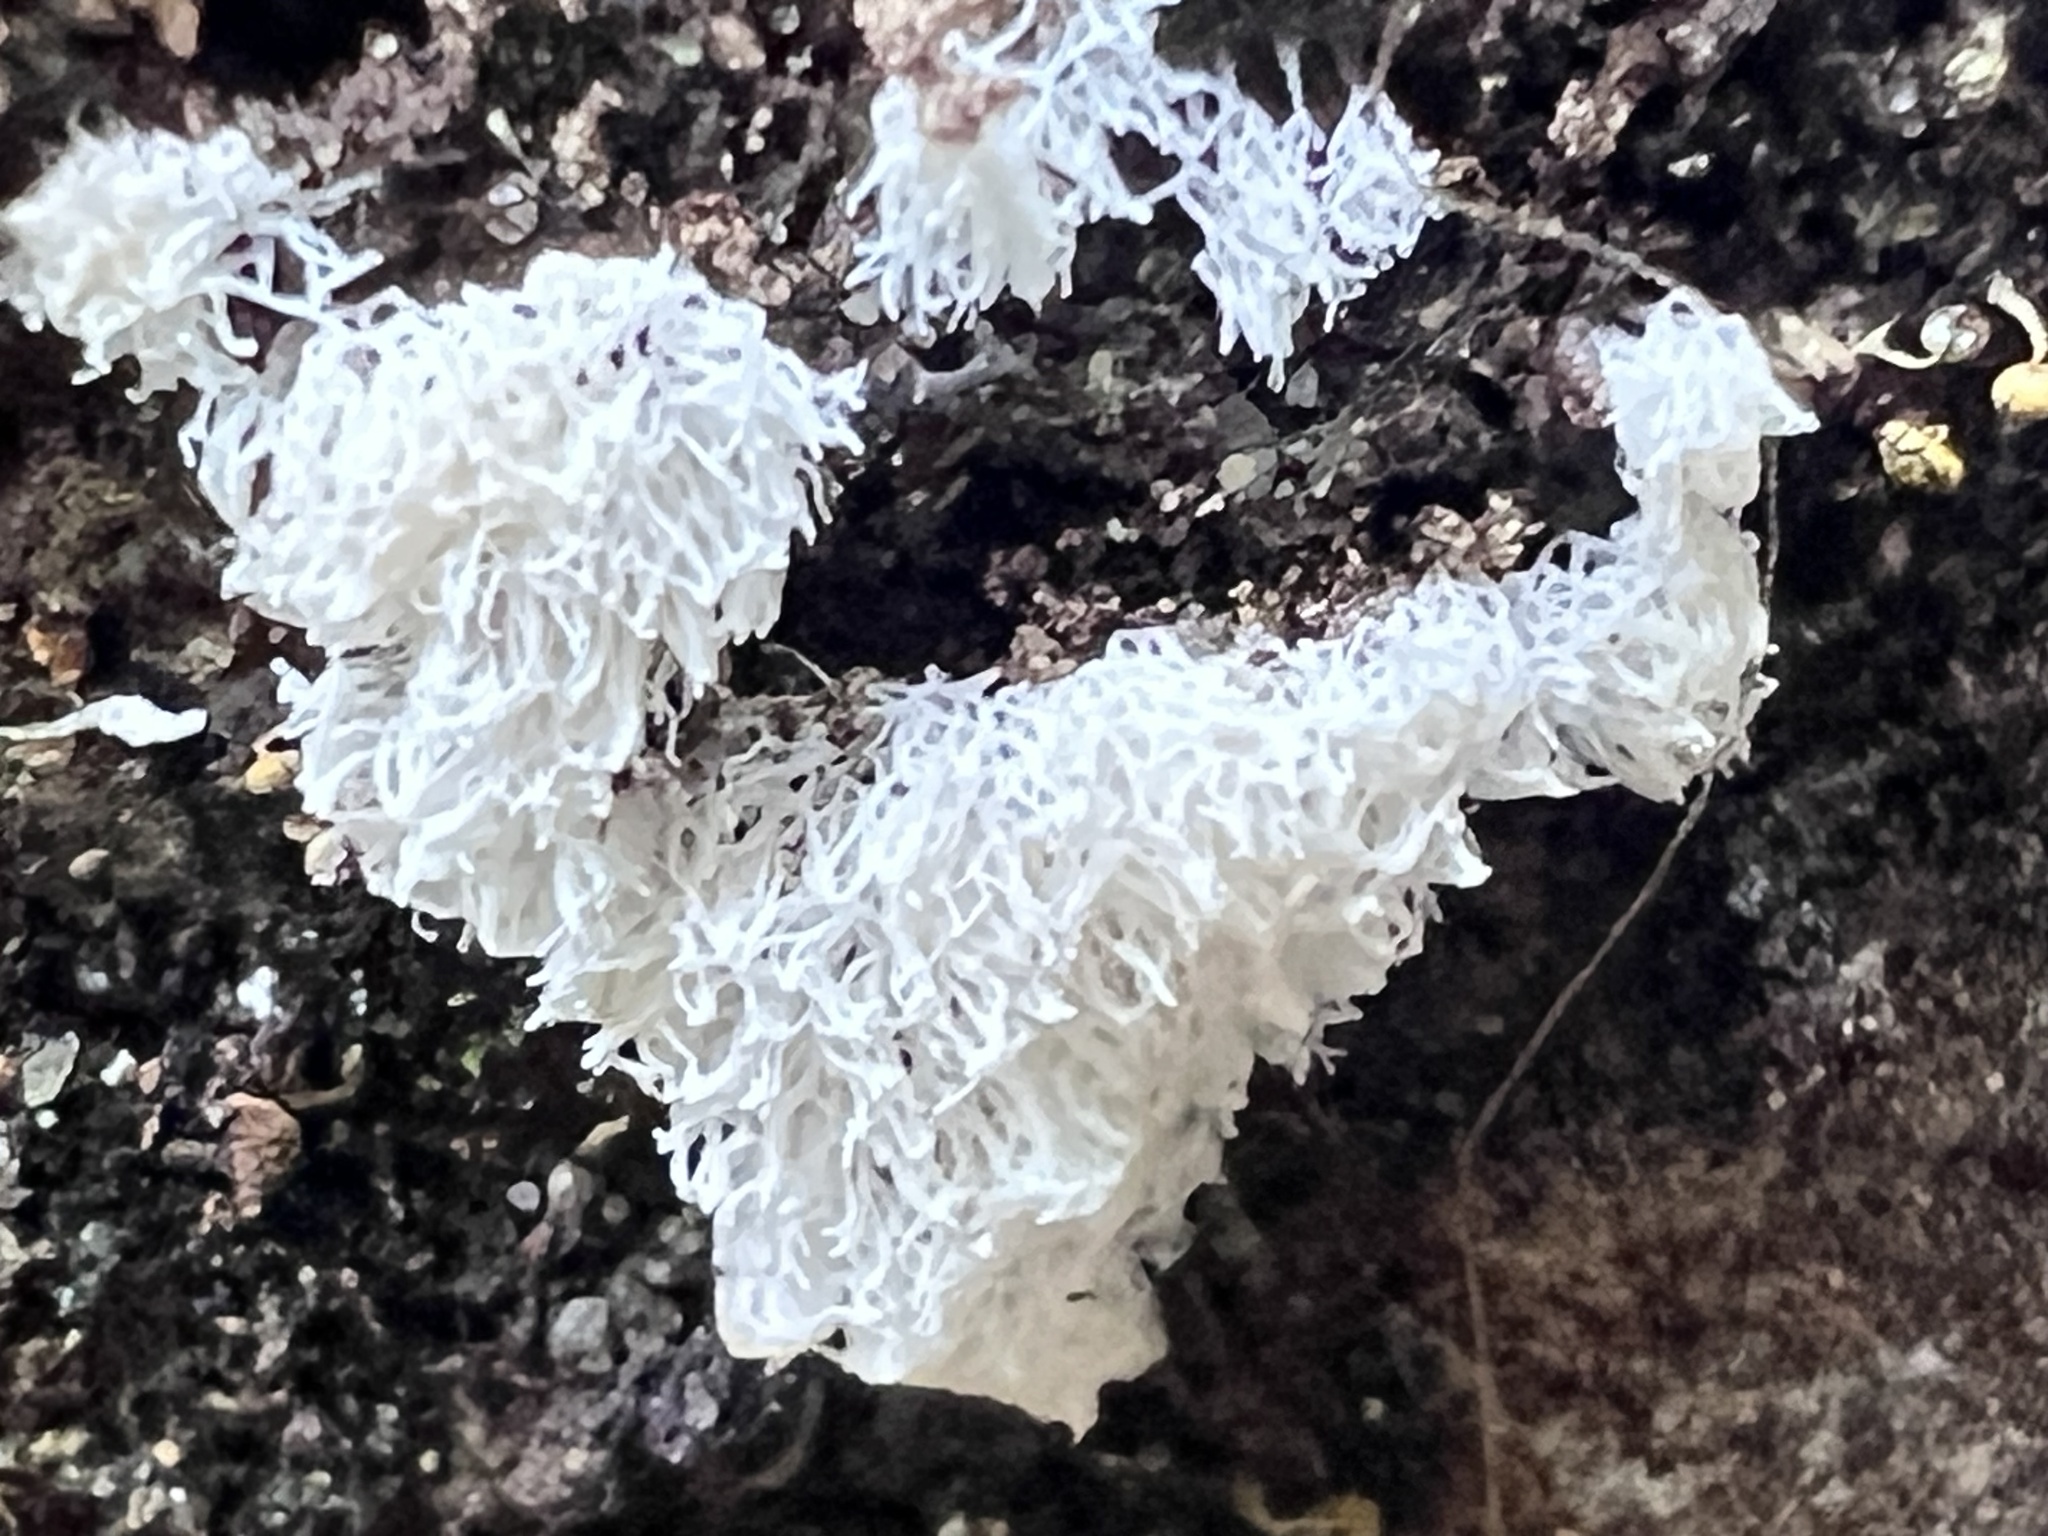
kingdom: Protozoa
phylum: Mycetozoa
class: Protosteliomycetes
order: Ceratiomyxales
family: Ceratiomyxaceae
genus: Ceratiomyxa
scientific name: Ceratiomyxa fruticulosa
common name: Honeycomb coral slime mold
